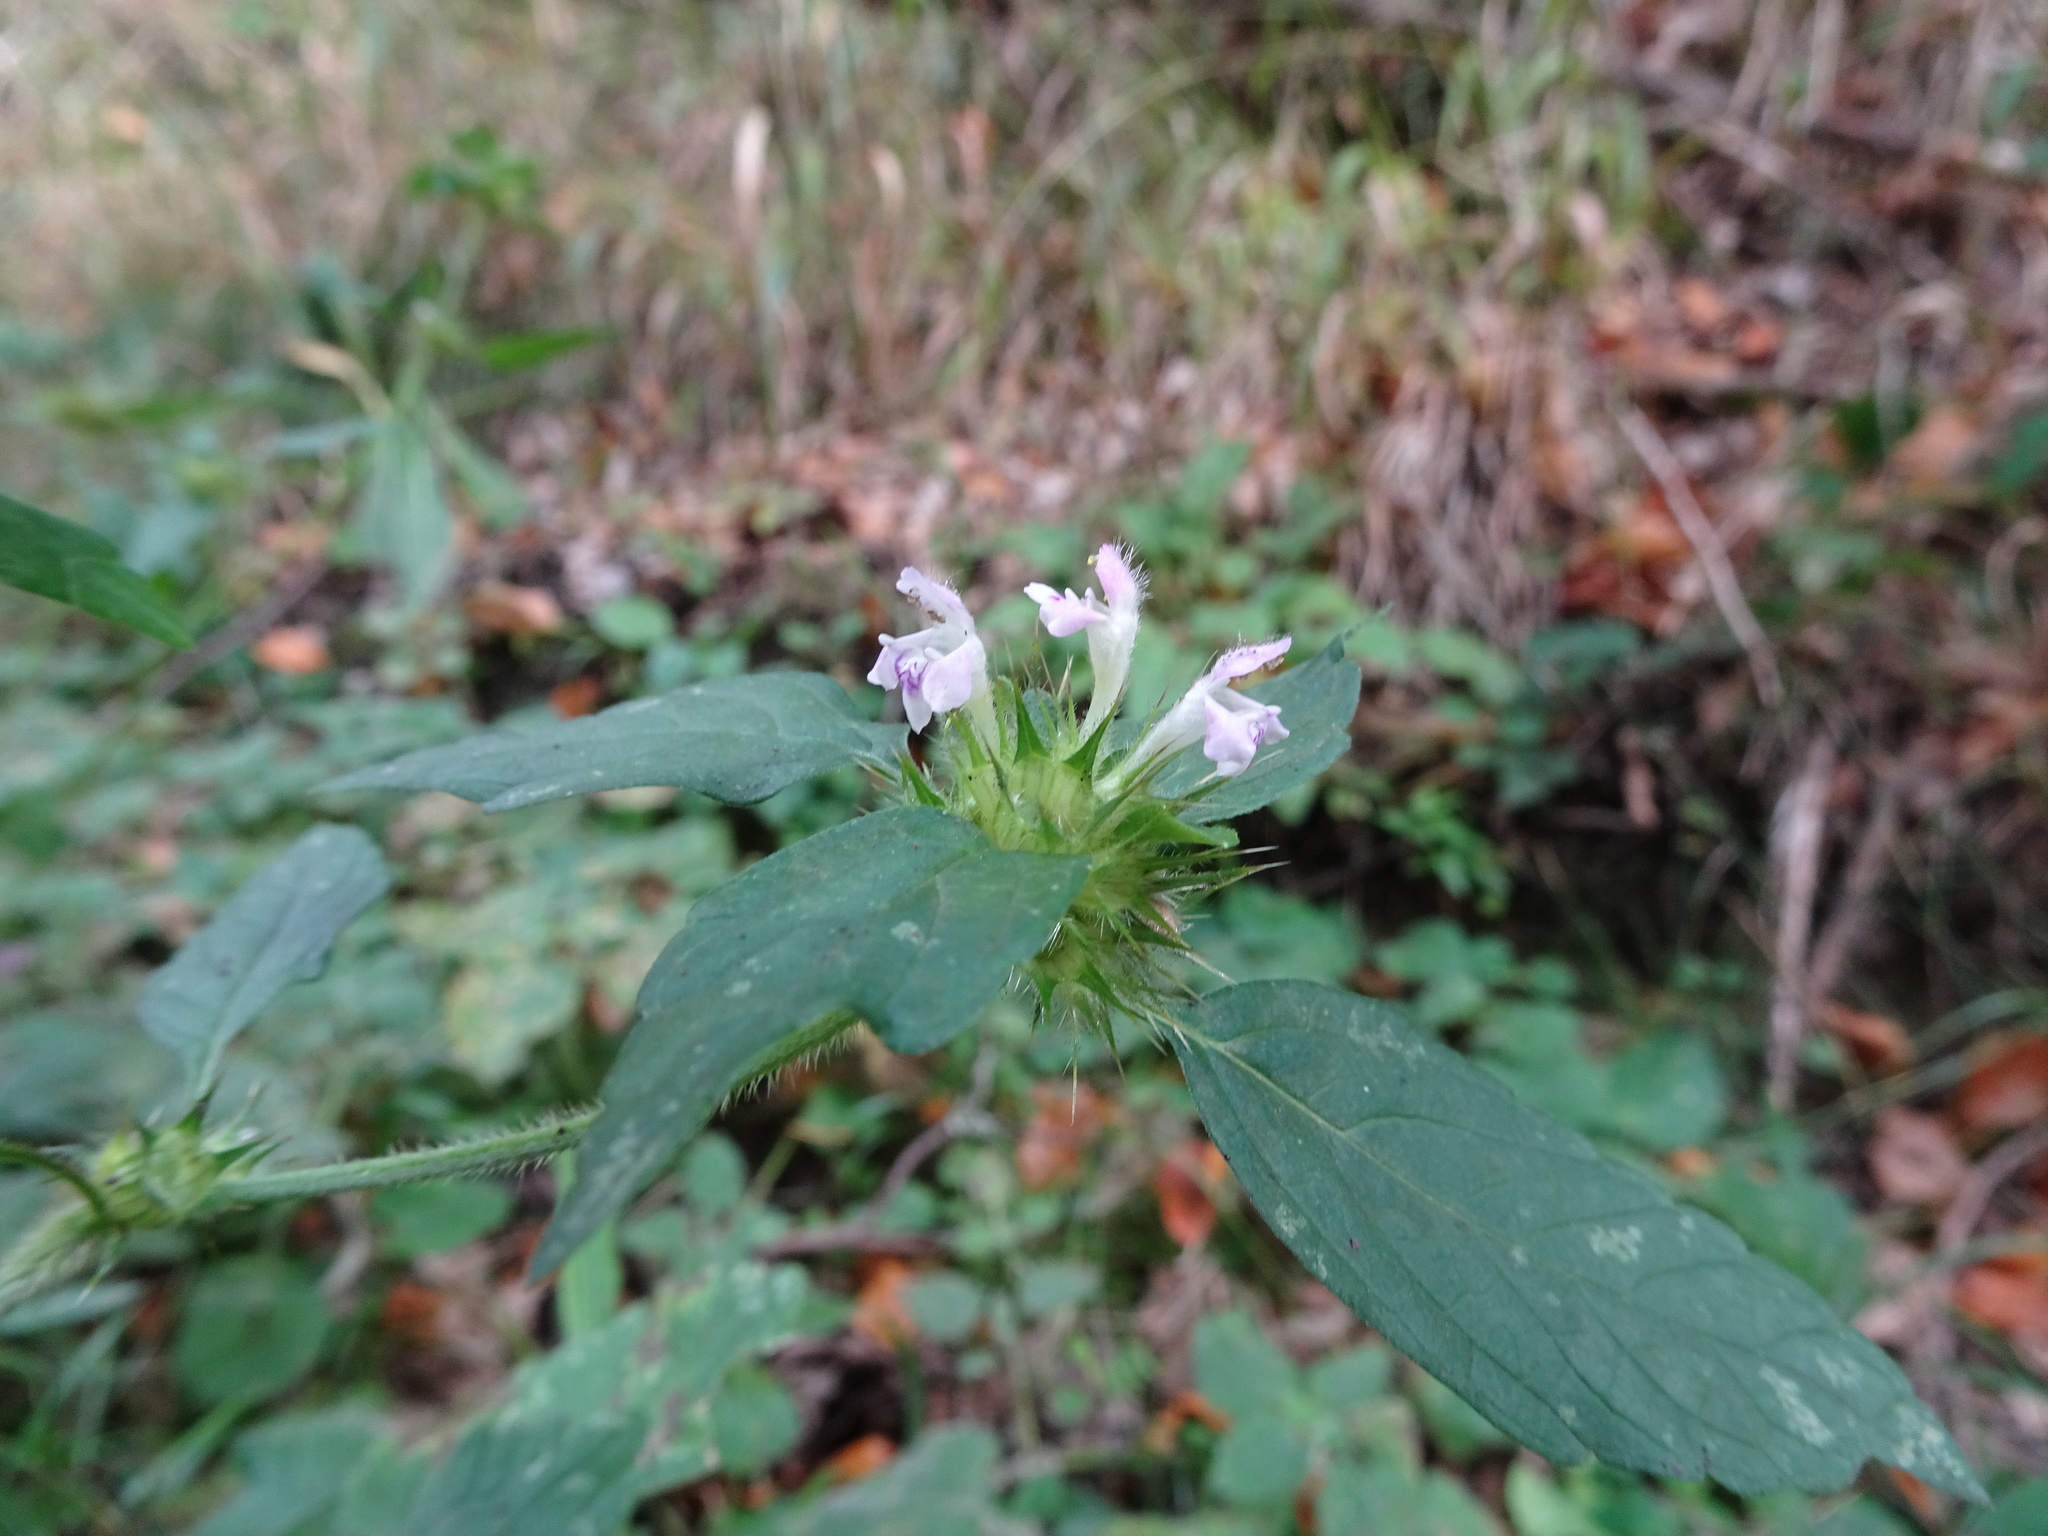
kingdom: Plantae
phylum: Tracheophyta
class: Magnoliopsida
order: Lamiales
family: Lamiaceae
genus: Galeopsis
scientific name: Galeopsis tetrahit
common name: Common hemp-nettle
